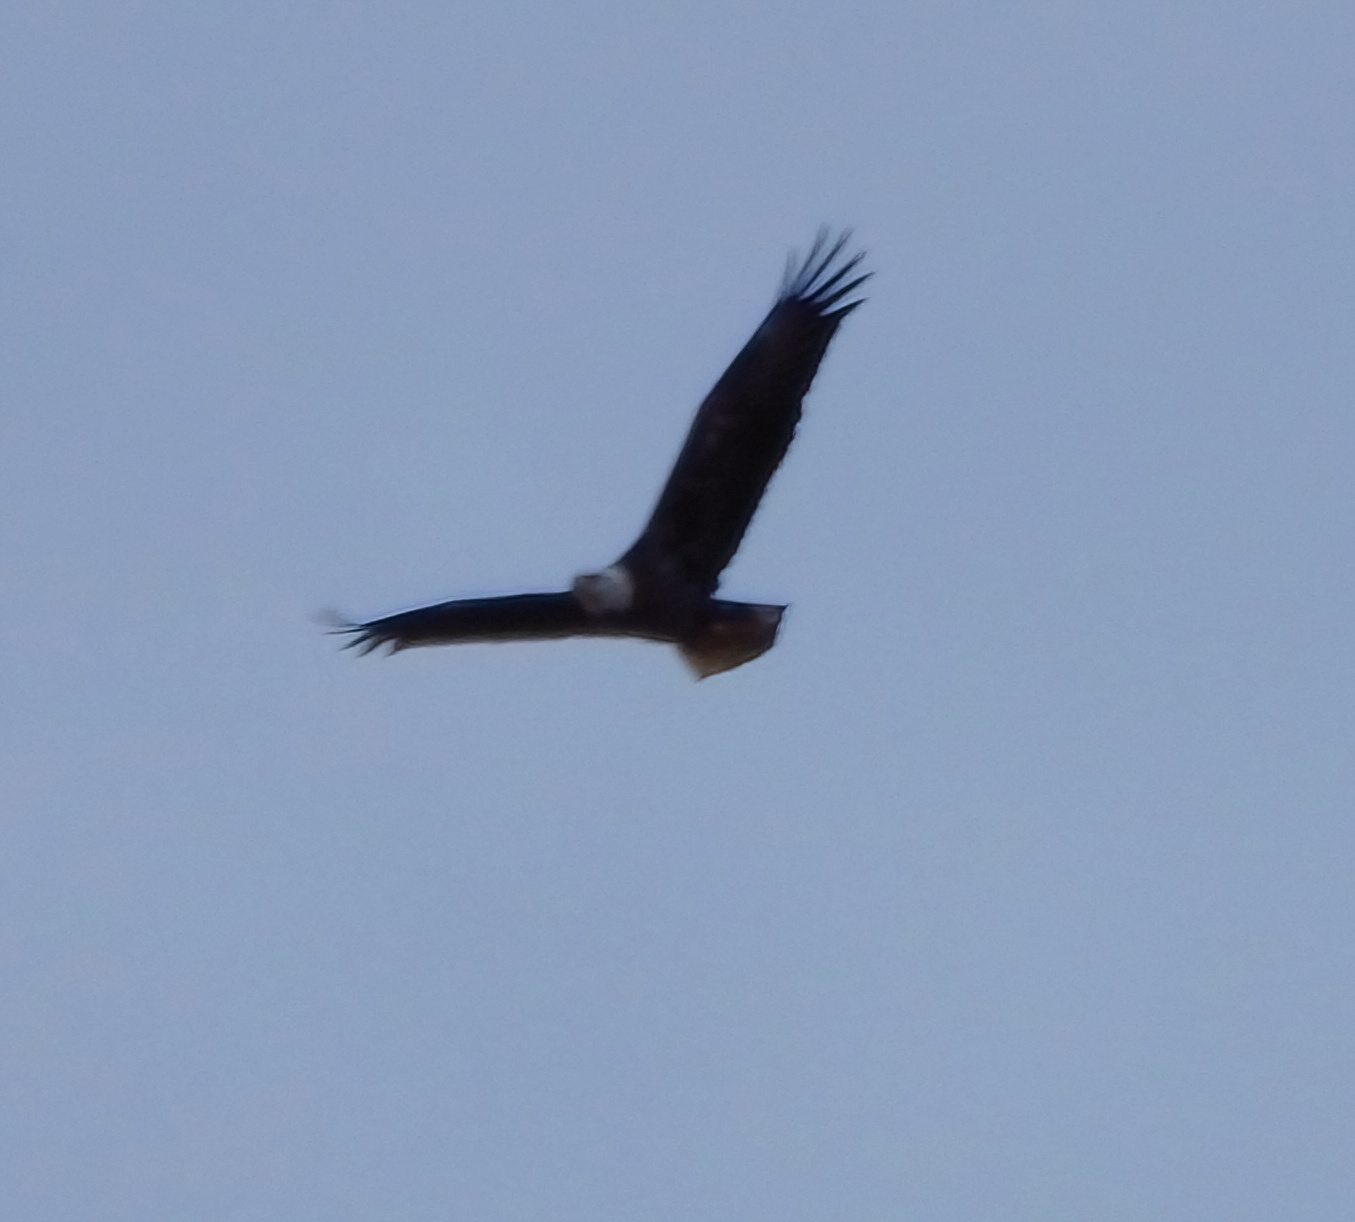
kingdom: Animalia
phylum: Chordata
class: Aves
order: Accipitriformes
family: Accipitridae
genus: Haliaeetus
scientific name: Haliaeetus leucocephalus
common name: Bald eagle
